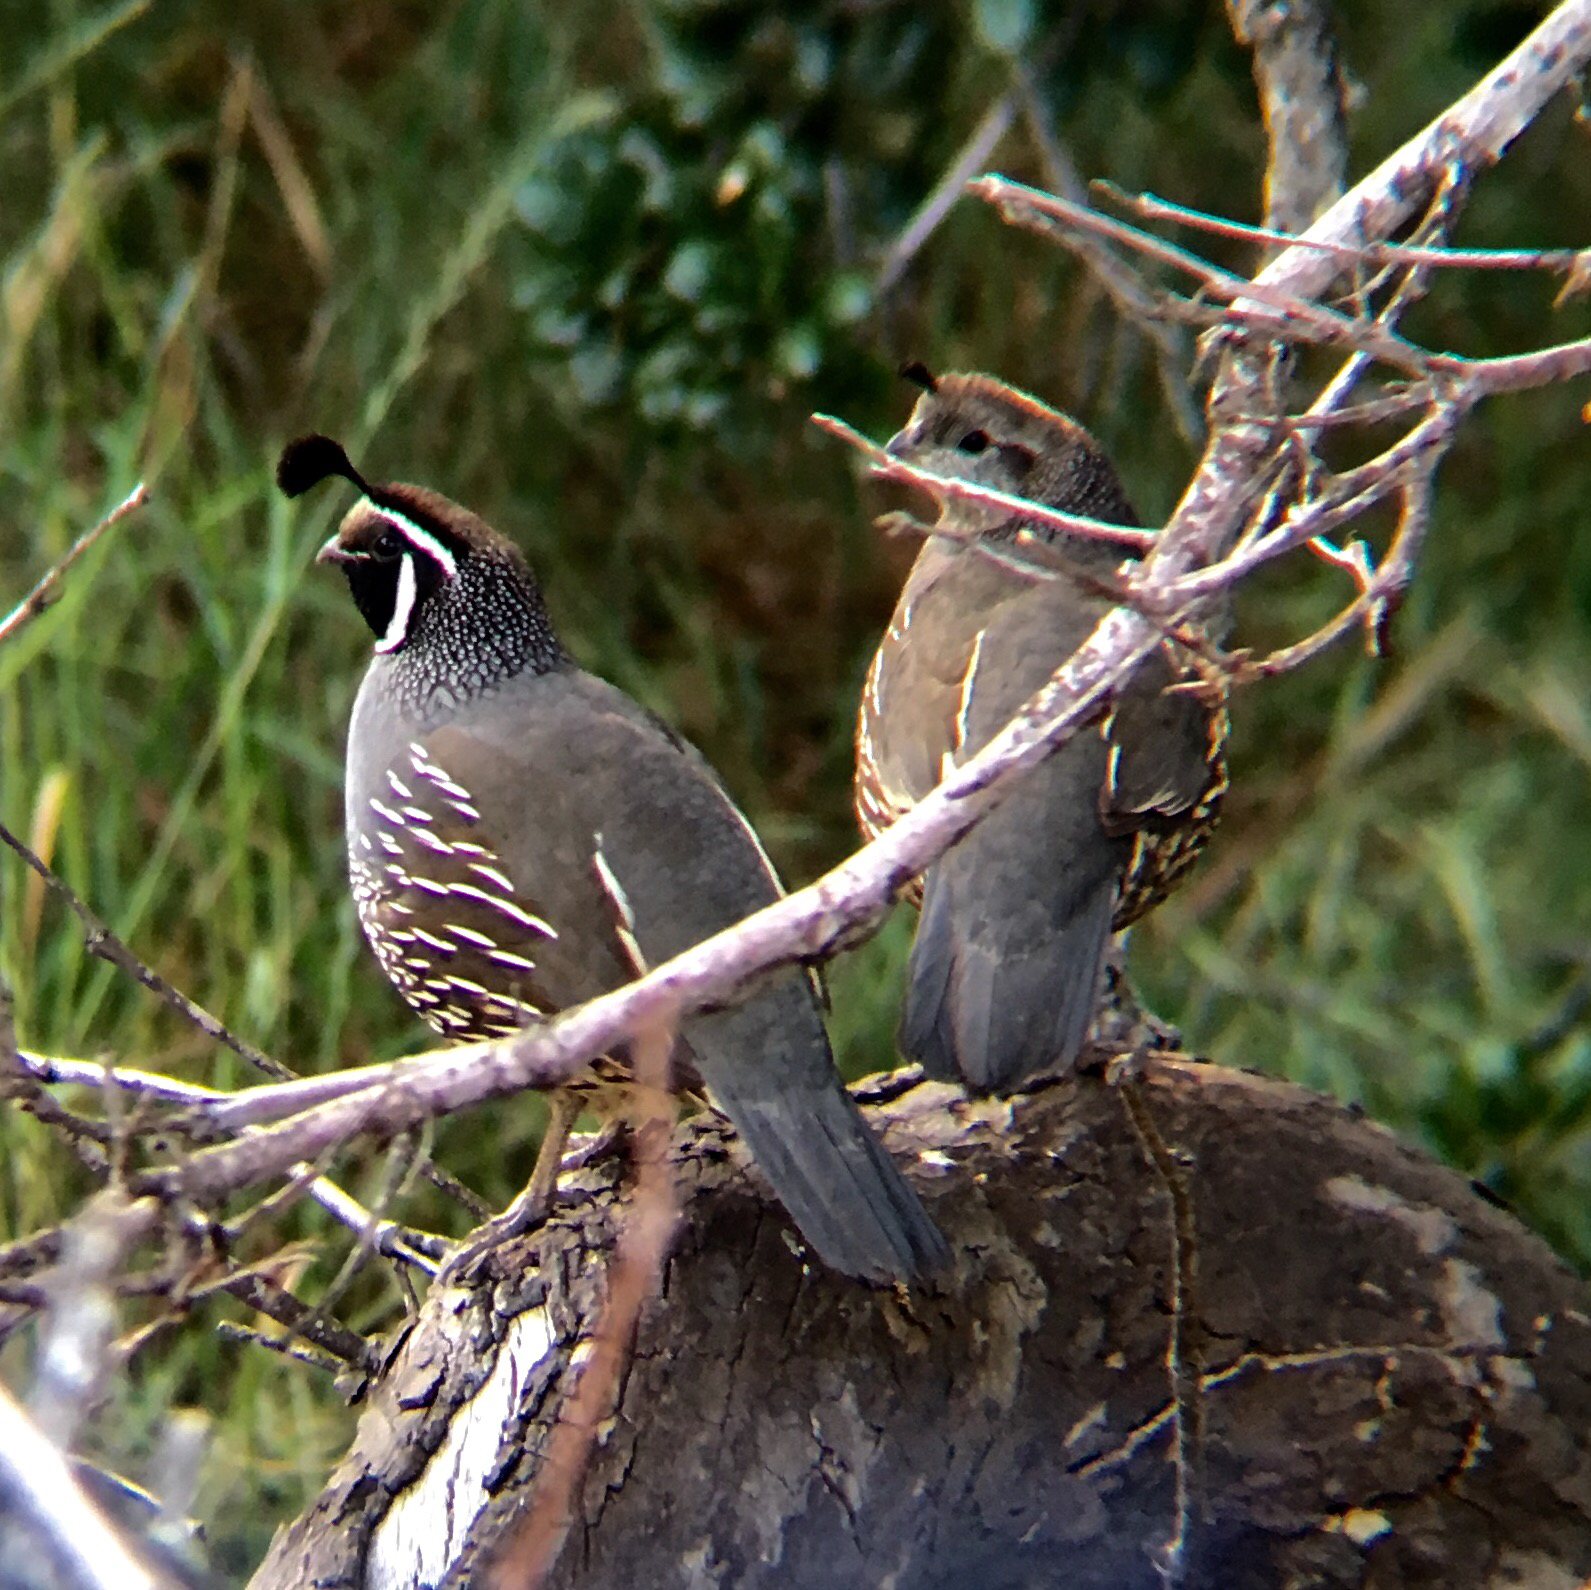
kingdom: Animalia
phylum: Chordata
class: Aves
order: Galliformes
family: Odontophoridae
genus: Callipepla
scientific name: Callipepla californica
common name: California quail
